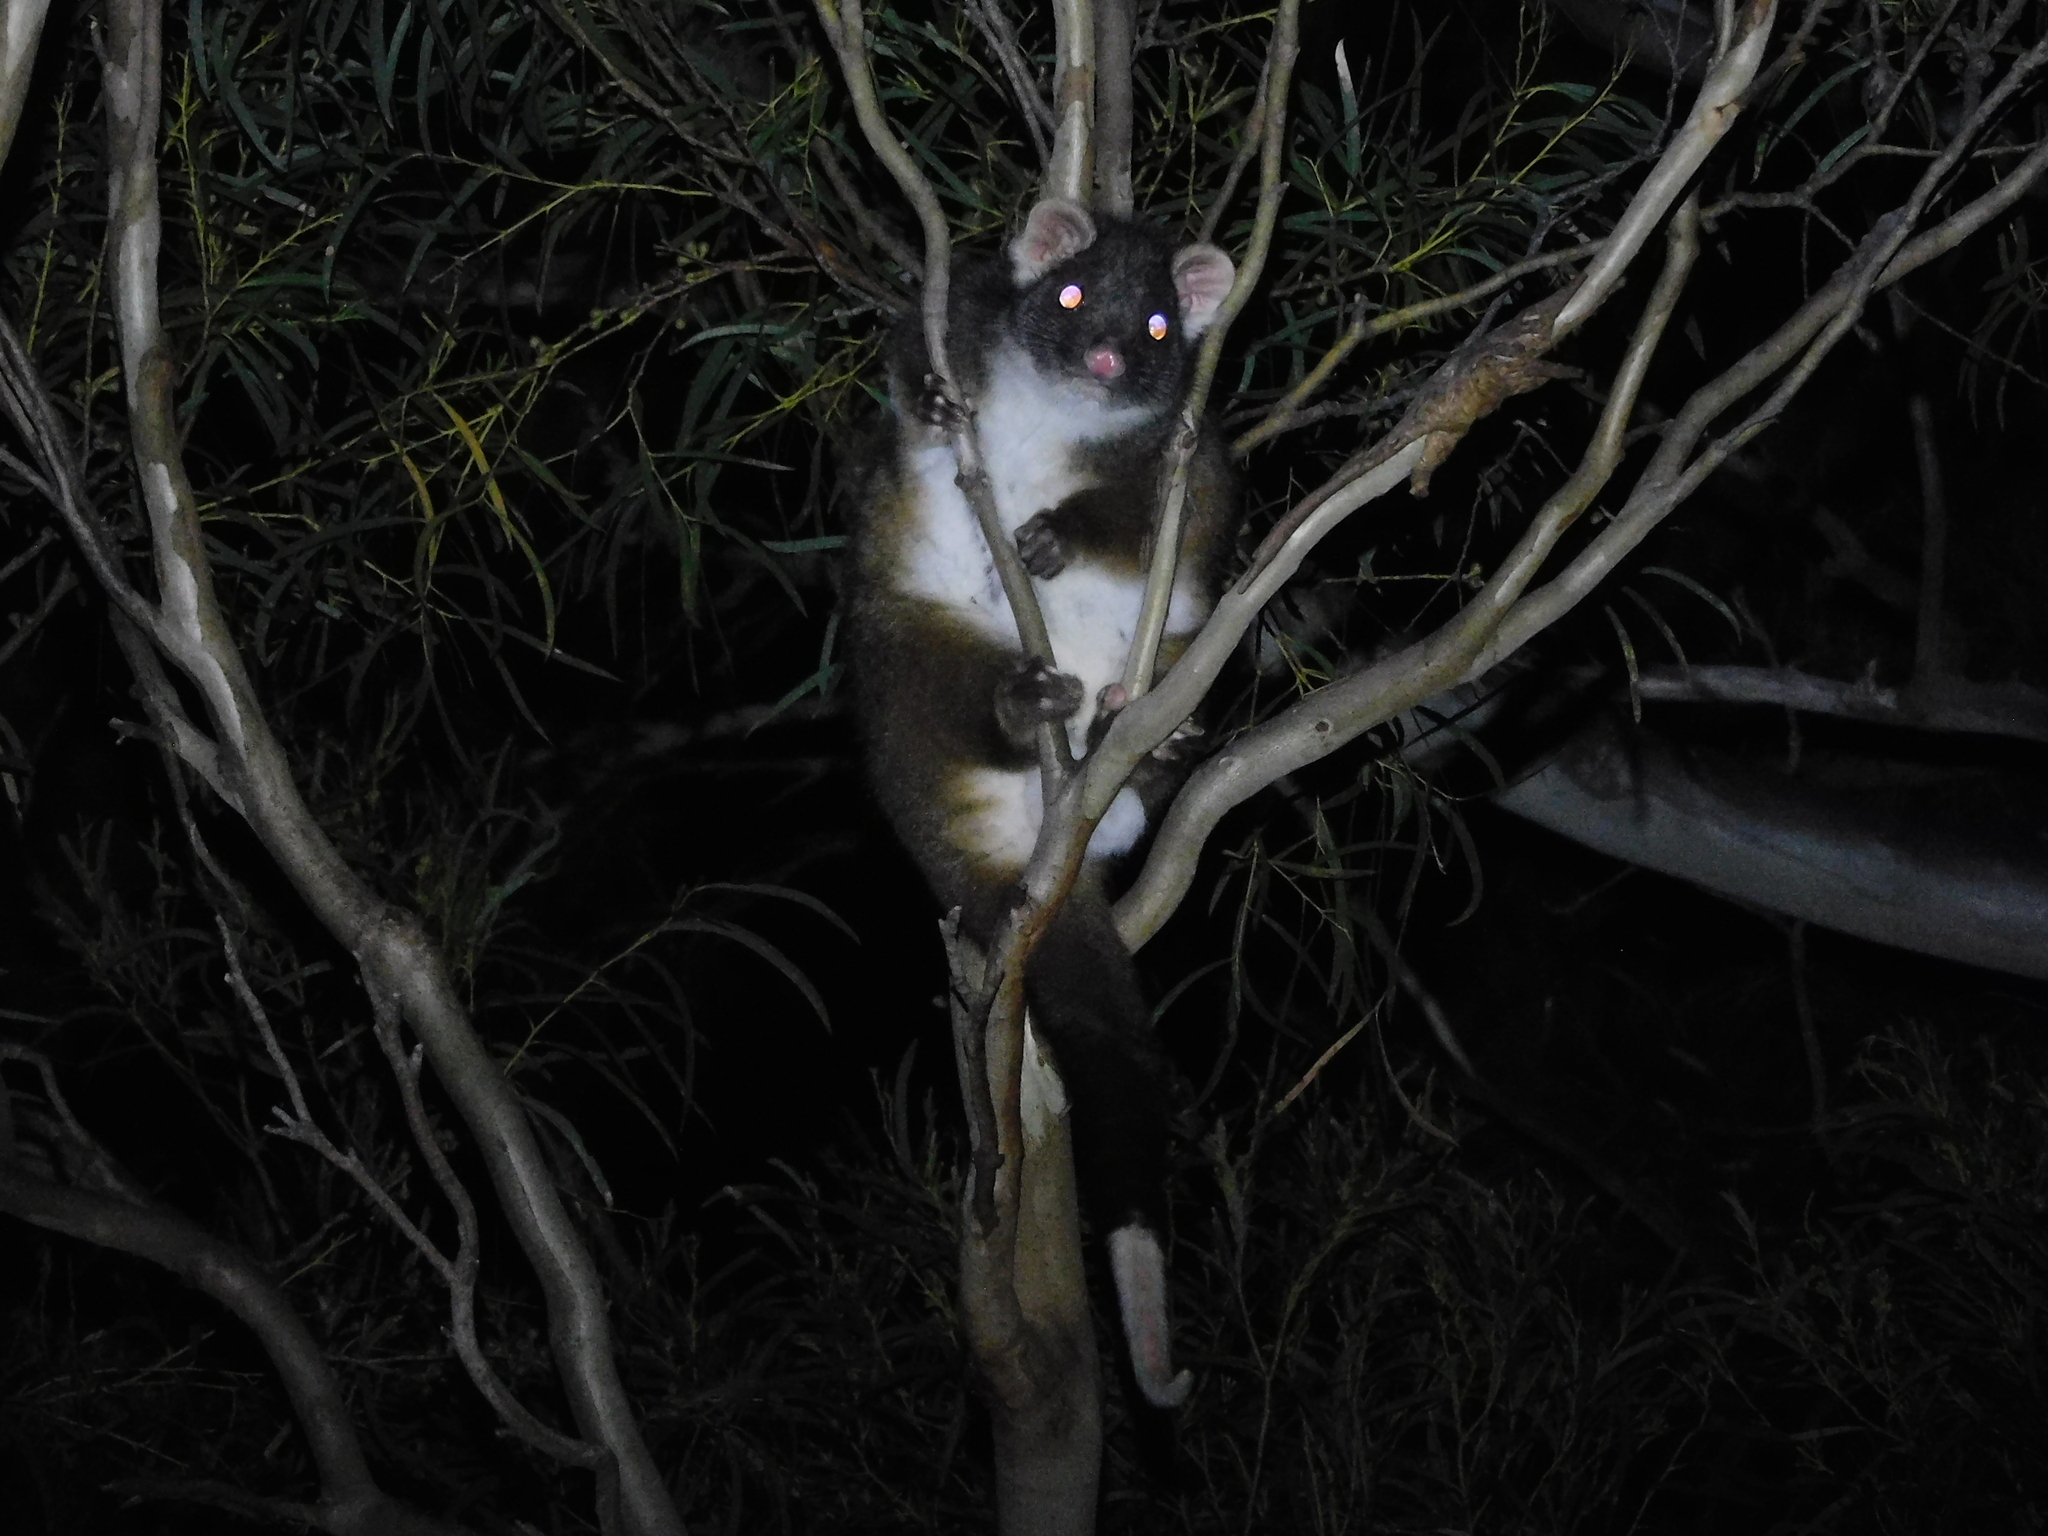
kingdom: Animalia
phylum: Chordata
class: Mammalia
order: Diprotodontia
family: Pseudocheiridae
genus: Pseudocheirus
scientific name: Pseudocheirus peregrinus
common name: Common ringtail possum
